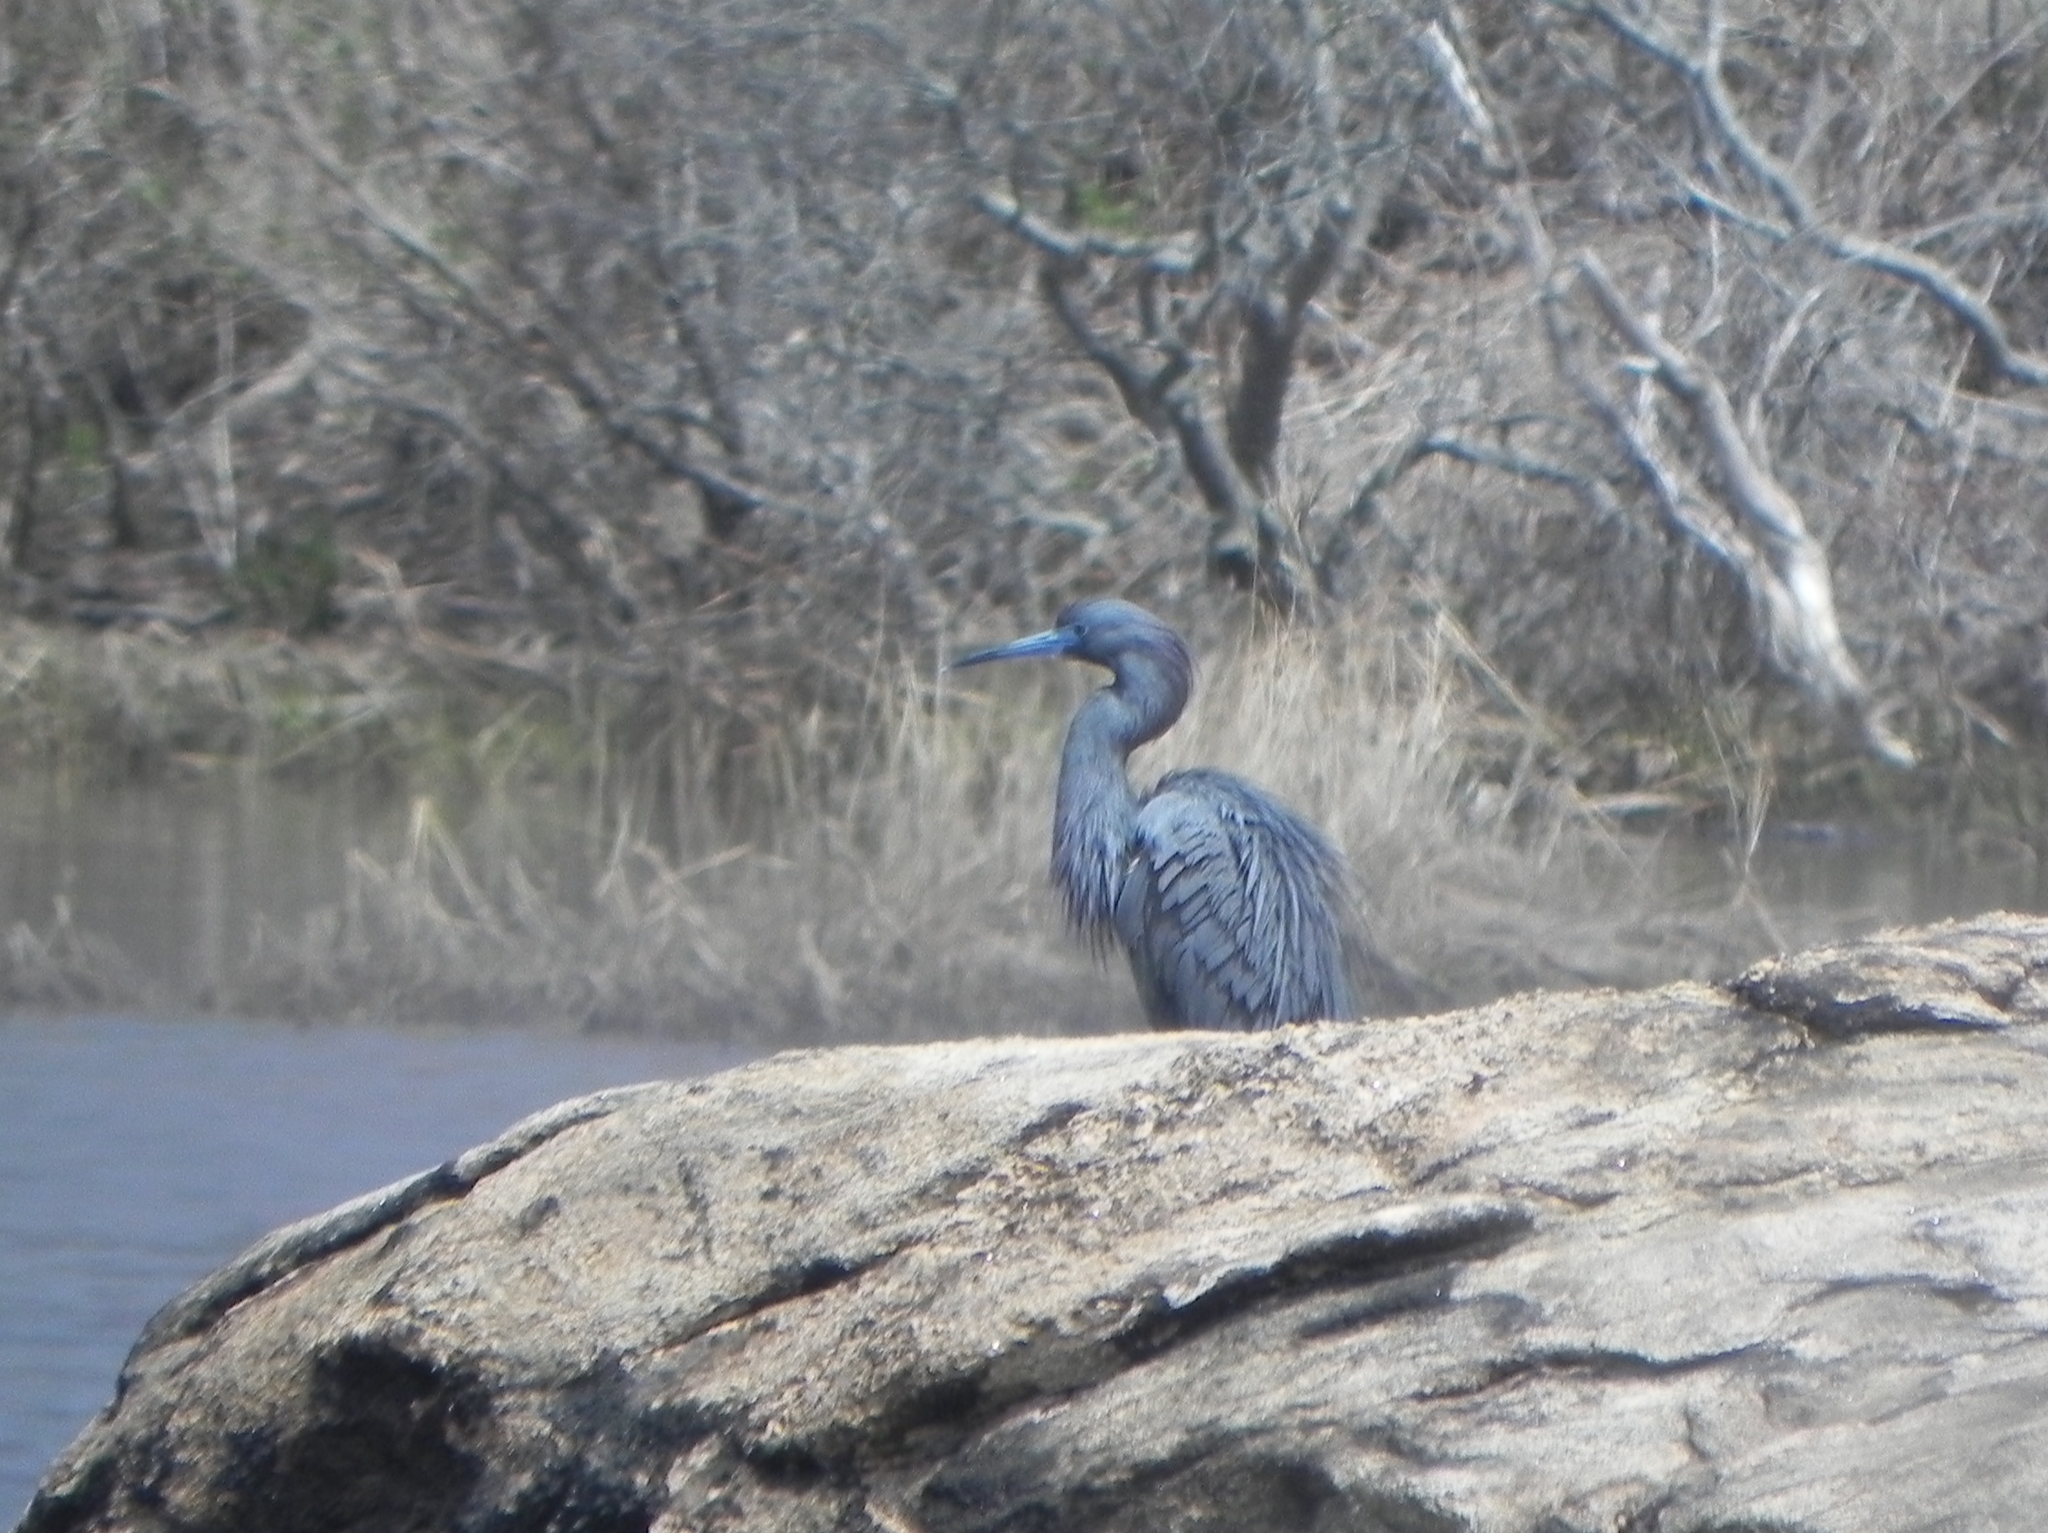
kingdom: Animalia
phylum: Chordata
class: Aves
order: Pelecaniformes
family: Ardeidae
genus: Egretta
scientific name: Egretta
